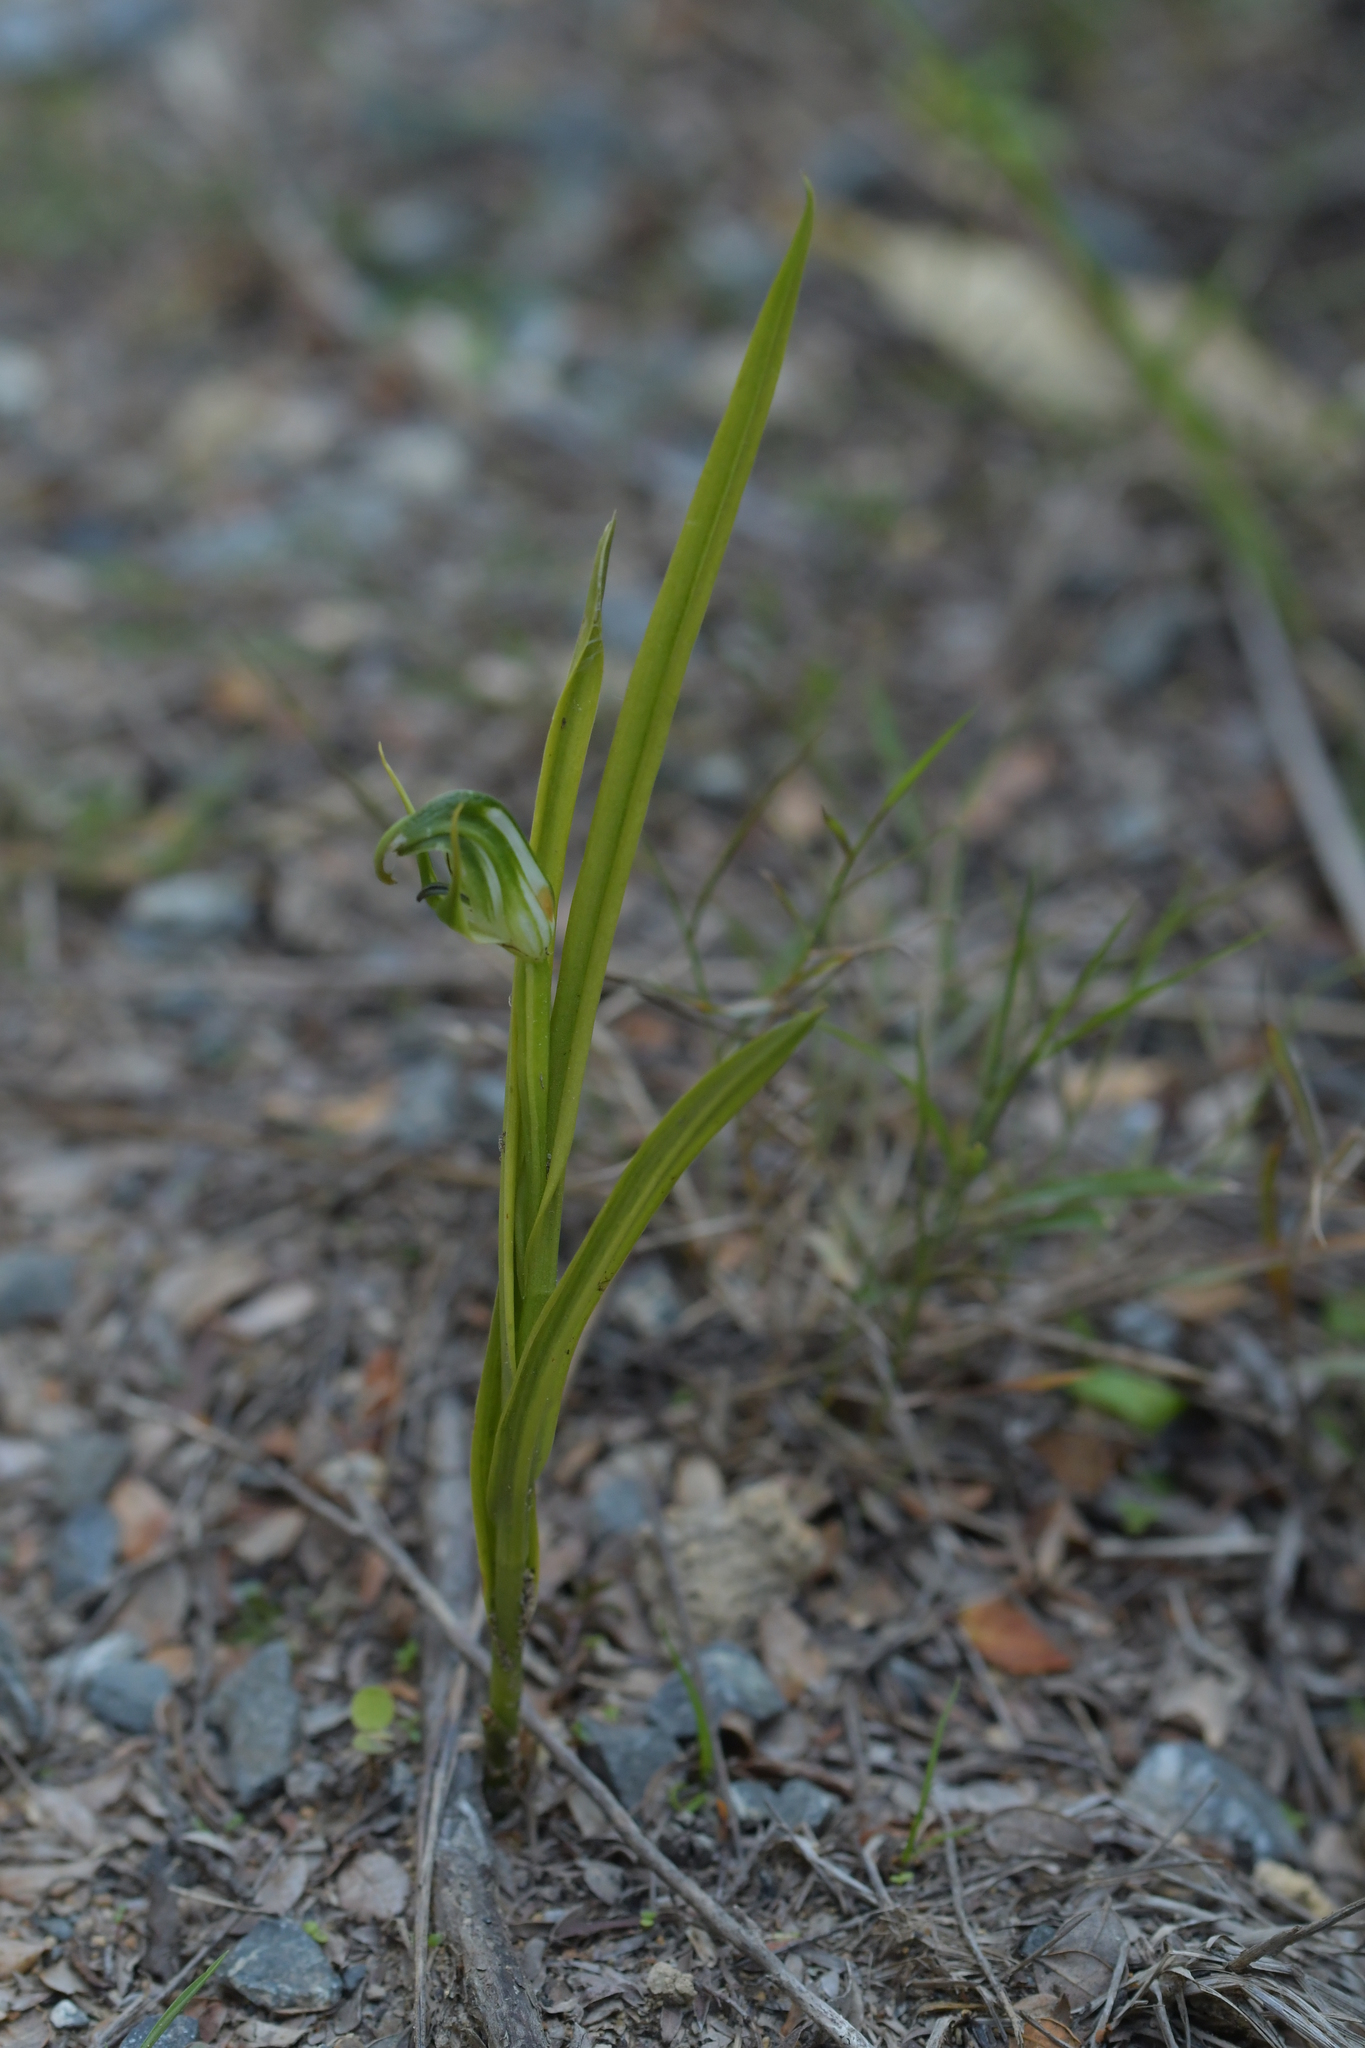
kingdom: Plantae
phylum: Tracheophyta
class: Liliopsida
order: Asparagales
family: Orchidaceae
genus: Pterostylis
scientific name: Pterostylis graminea
